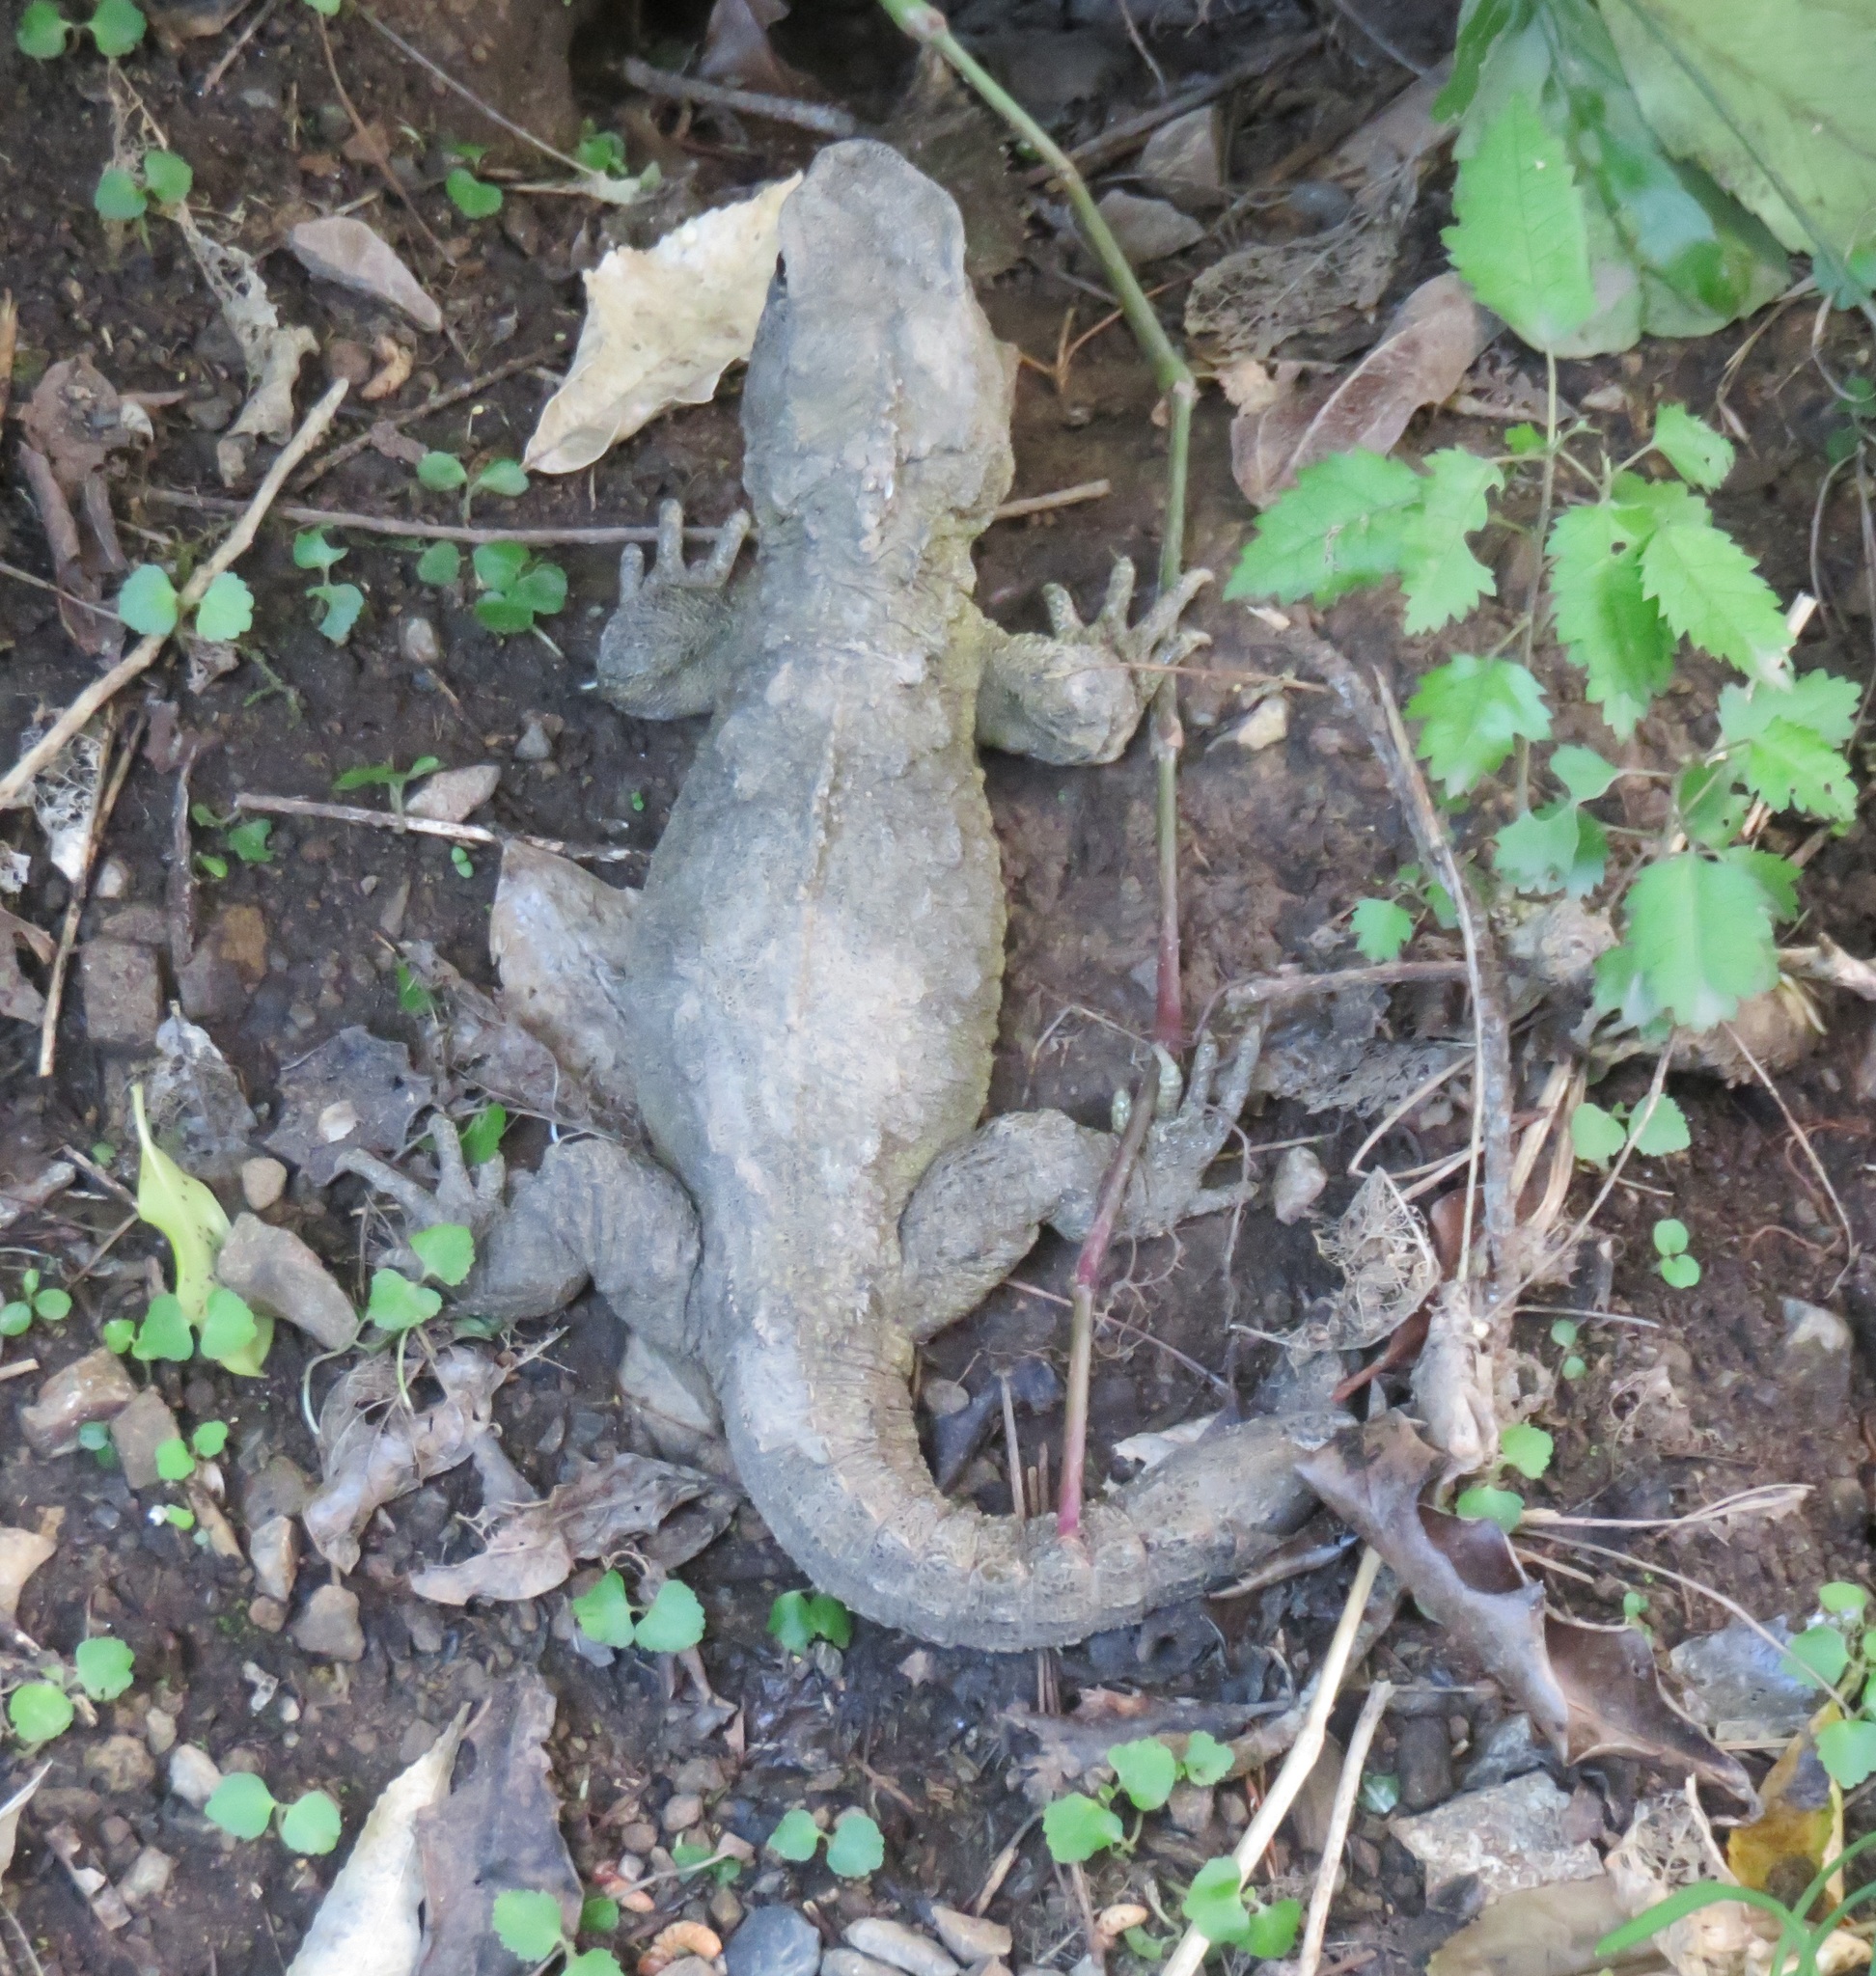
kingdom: Animalia
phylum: Chordata
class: Sphenodontia
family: Sphenodontidae
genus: Sphenodon
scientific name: Sphenodon punctatus
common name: Tuatara
